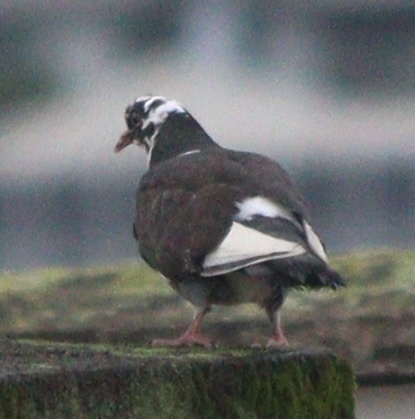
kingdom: Animalia
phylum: Chordata
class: Aves
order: Columbiformes
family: Columbidae
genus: Columba
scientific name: Columba livia
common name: Rock pigeon
